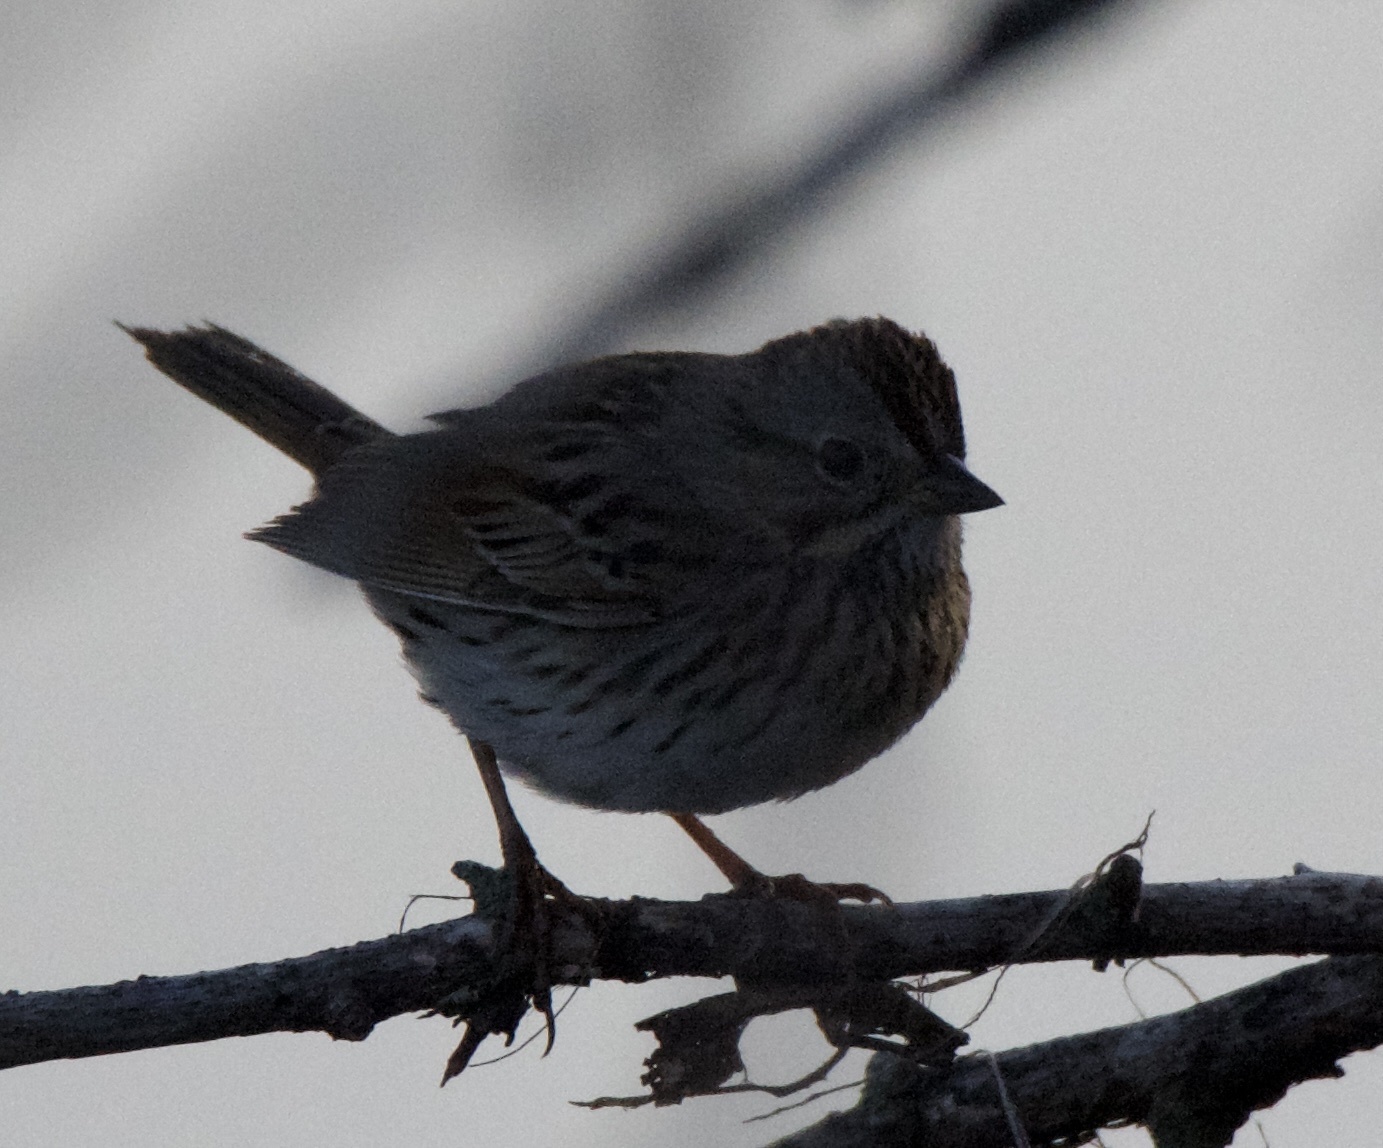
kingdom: Animalia
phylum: Chordata
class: Aves
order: Passeriformes
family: Passerellidae
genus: Melospiza
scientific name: Melospiza lincolnii
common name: Lincoln's sparrow
